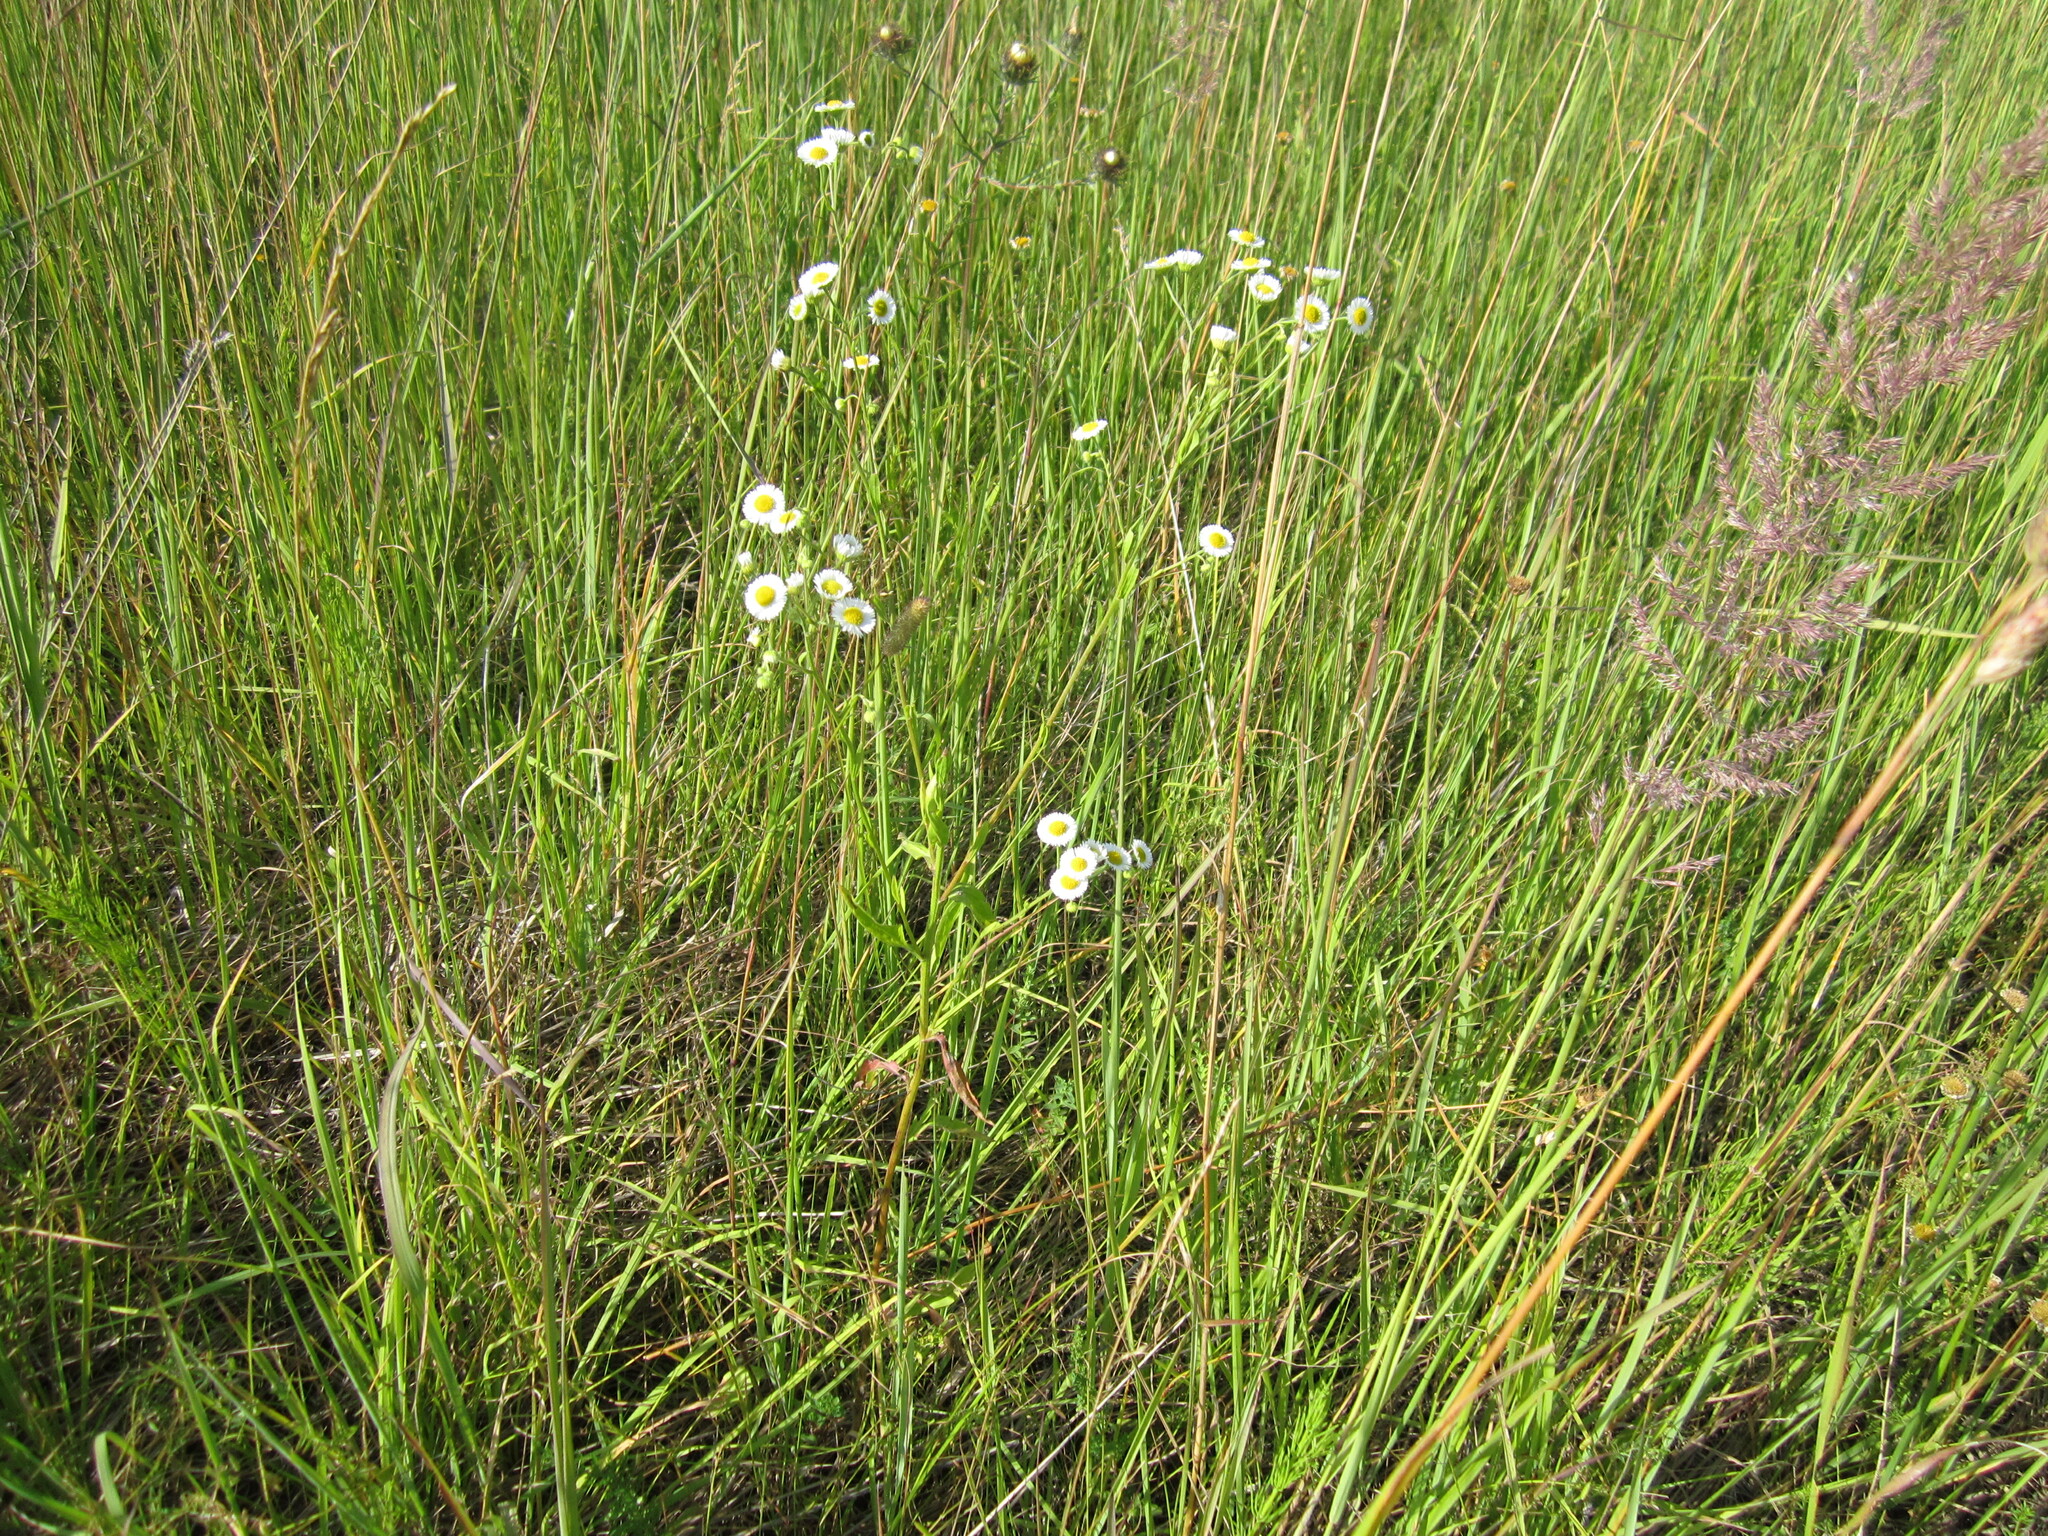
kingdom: Plantae
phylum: Tracheophyta
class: Magnoliopsida
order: Asterales
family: Asteraceae
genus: Erigeron
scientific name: Erigeron strigosus
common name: Common eastern fleabane
